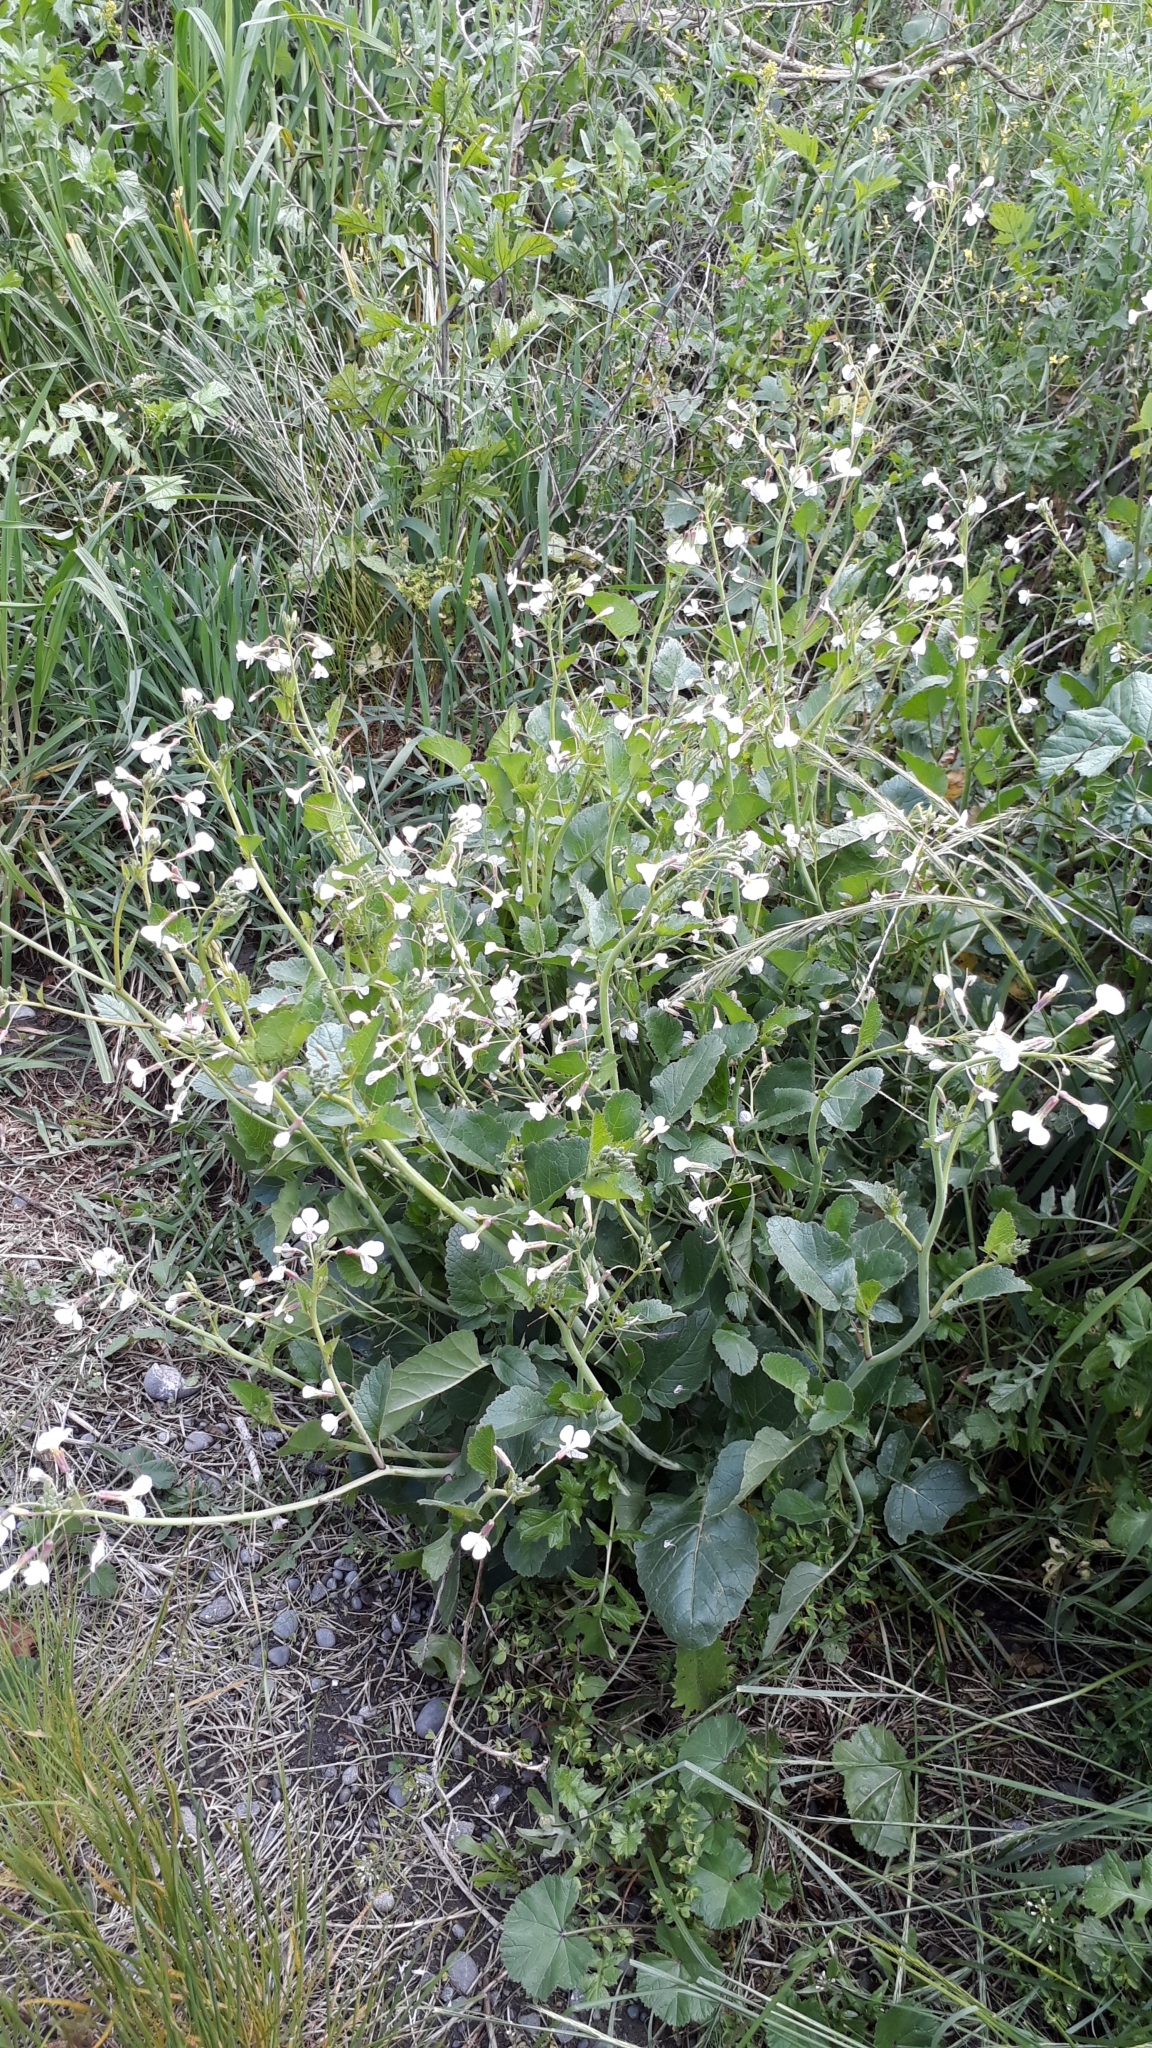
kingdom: Plantae
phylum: Tracheophyta
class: Magnoliopsida
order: Brassicales
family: Brassicaceae
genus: Raphanus
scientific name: Raphanus raphanistrum
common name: Wild radish
